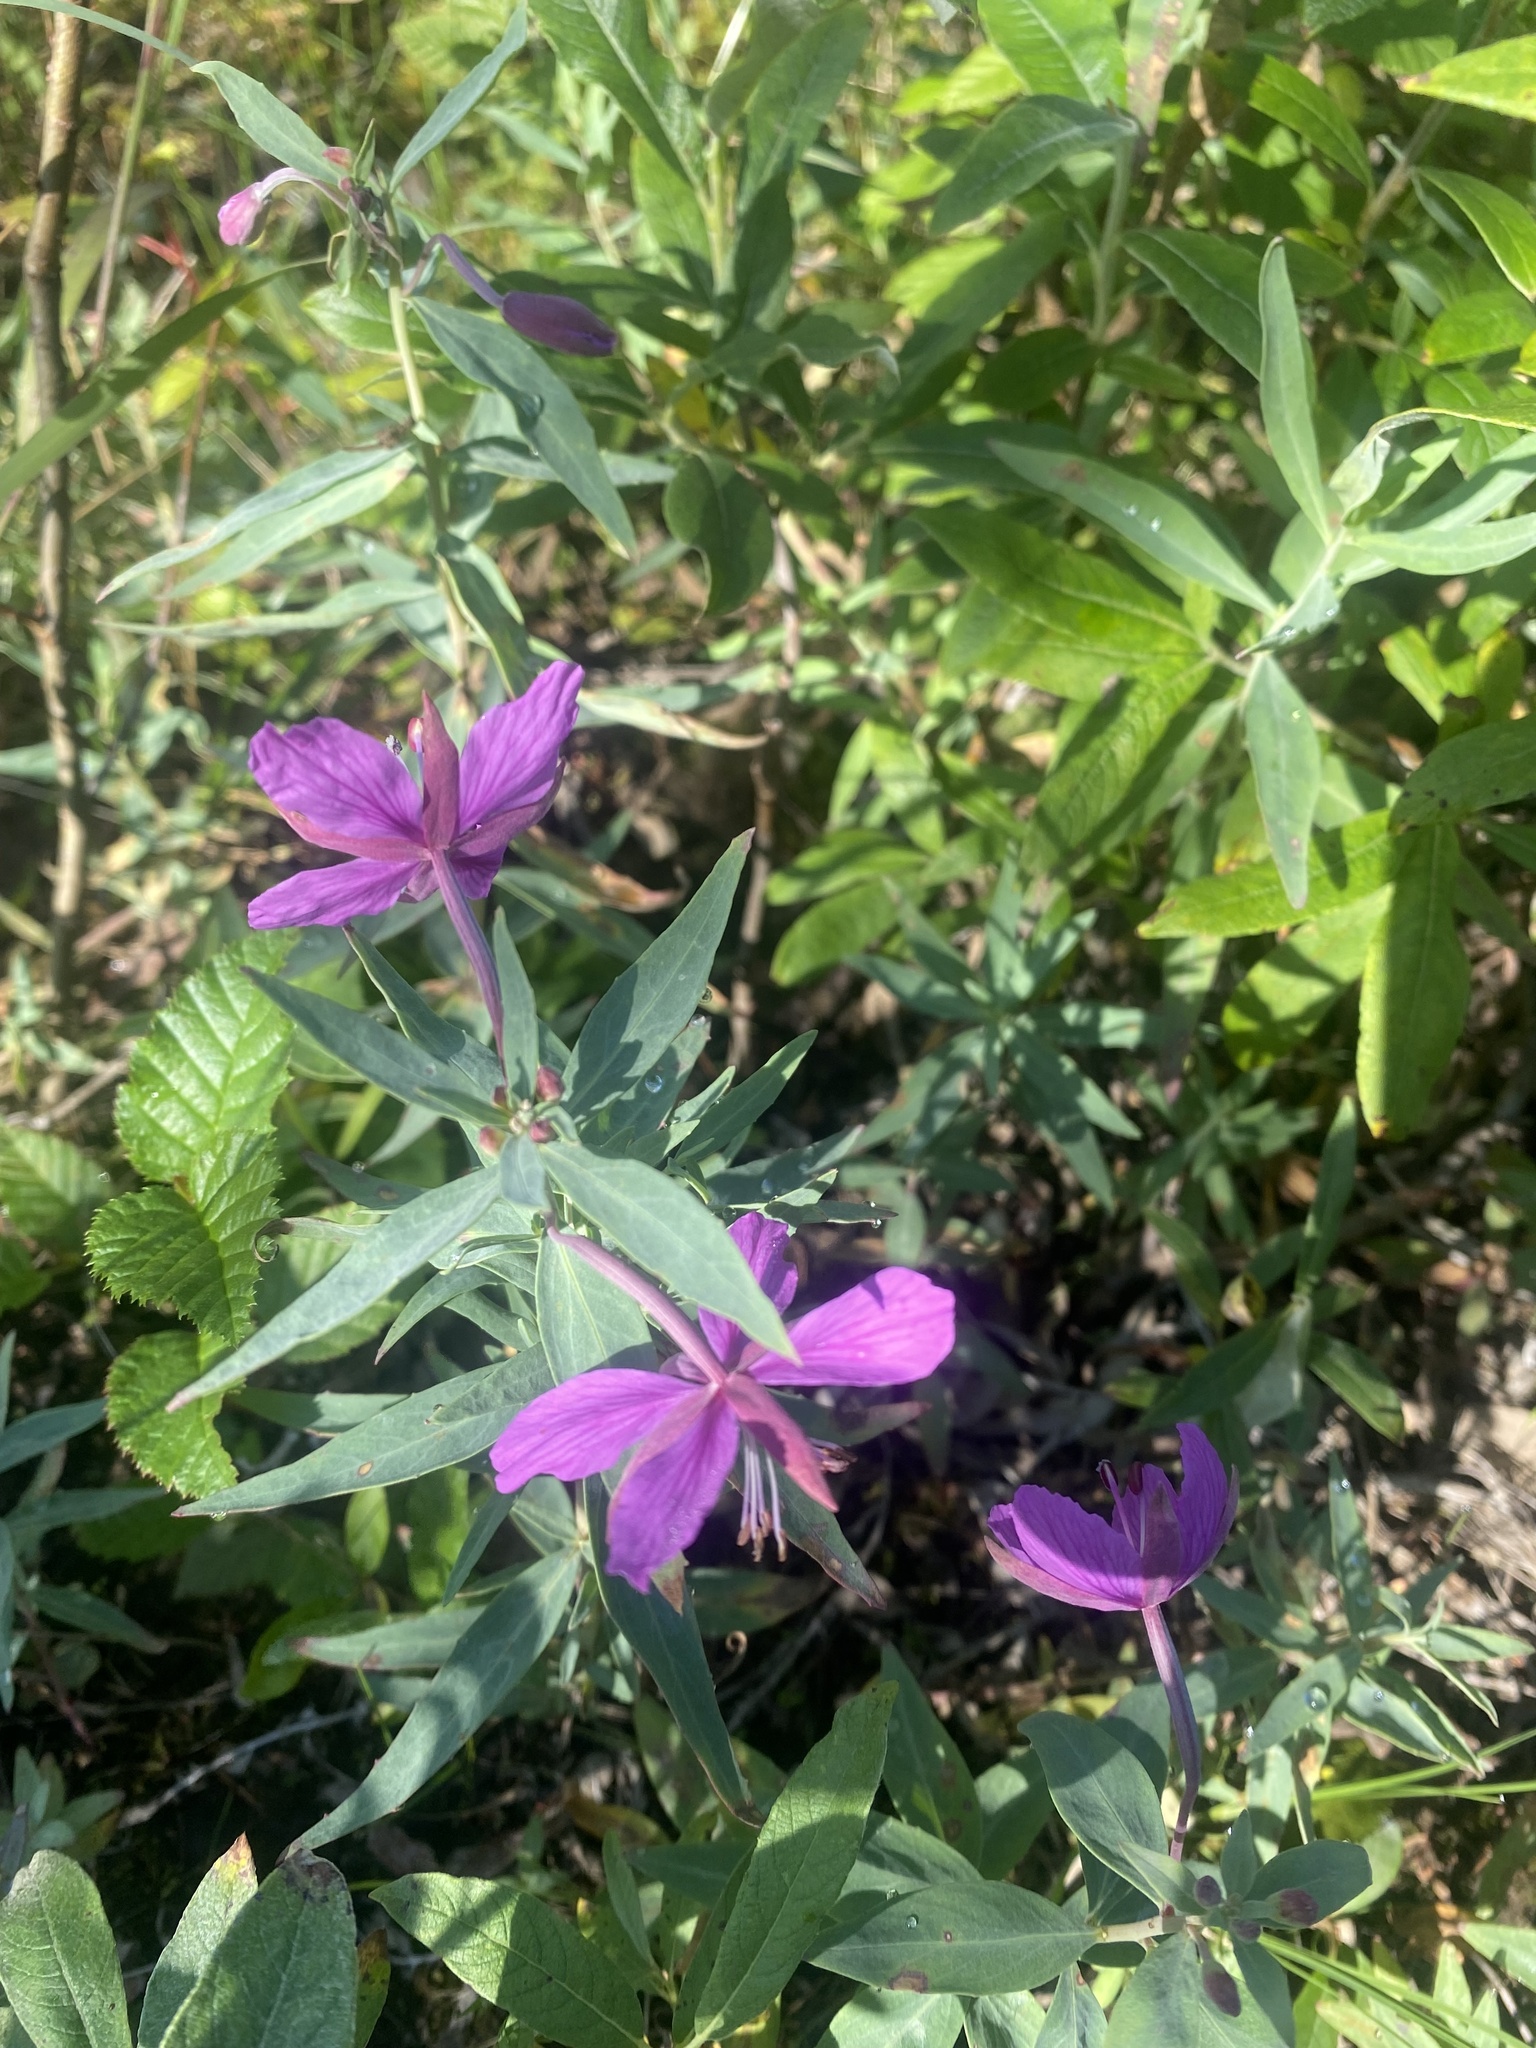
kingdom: Plantae
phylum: Tracheophyta
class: Magnoliopsida
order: Myrtales
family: Onagraceae
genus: Chamaenerion
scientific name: Chamaenerion latifolium
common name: Dwarf fireweed
